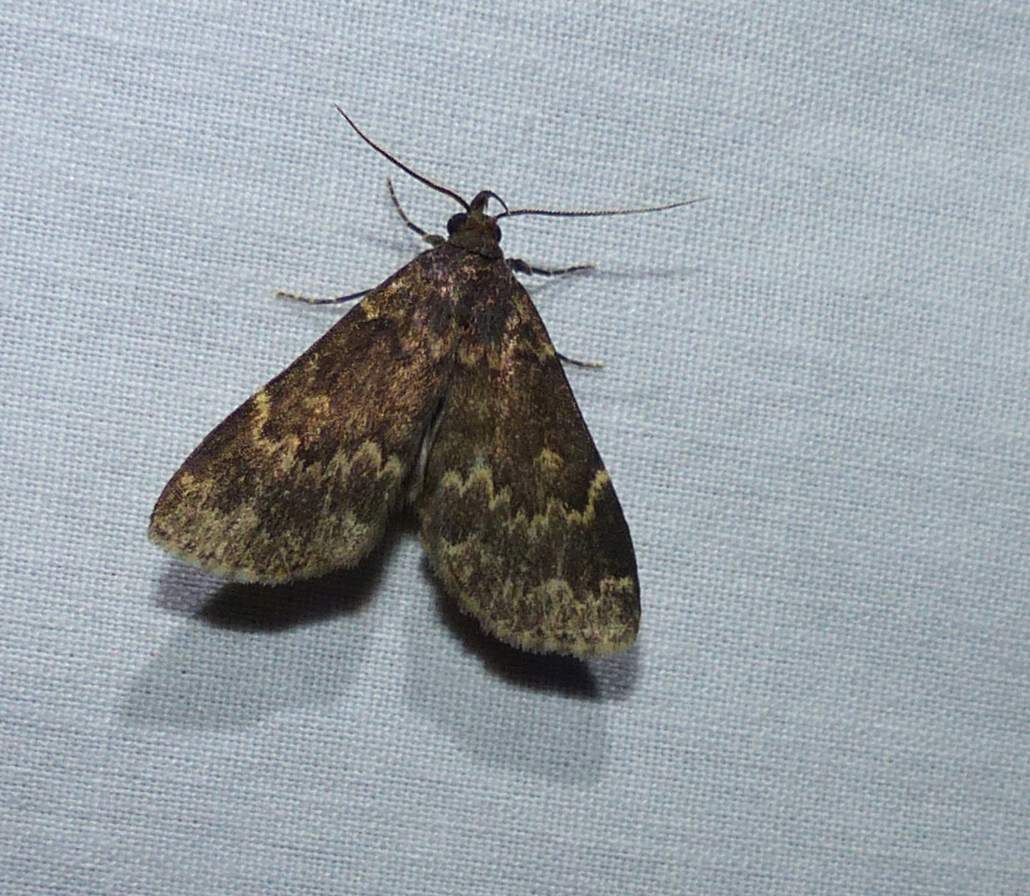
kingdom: Animalia
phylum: Arthropoda
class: Insecta
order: Lepidoptera
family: Erebidae
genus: Idia
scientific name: Idia lubricalis
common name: Twin-striped tabby
